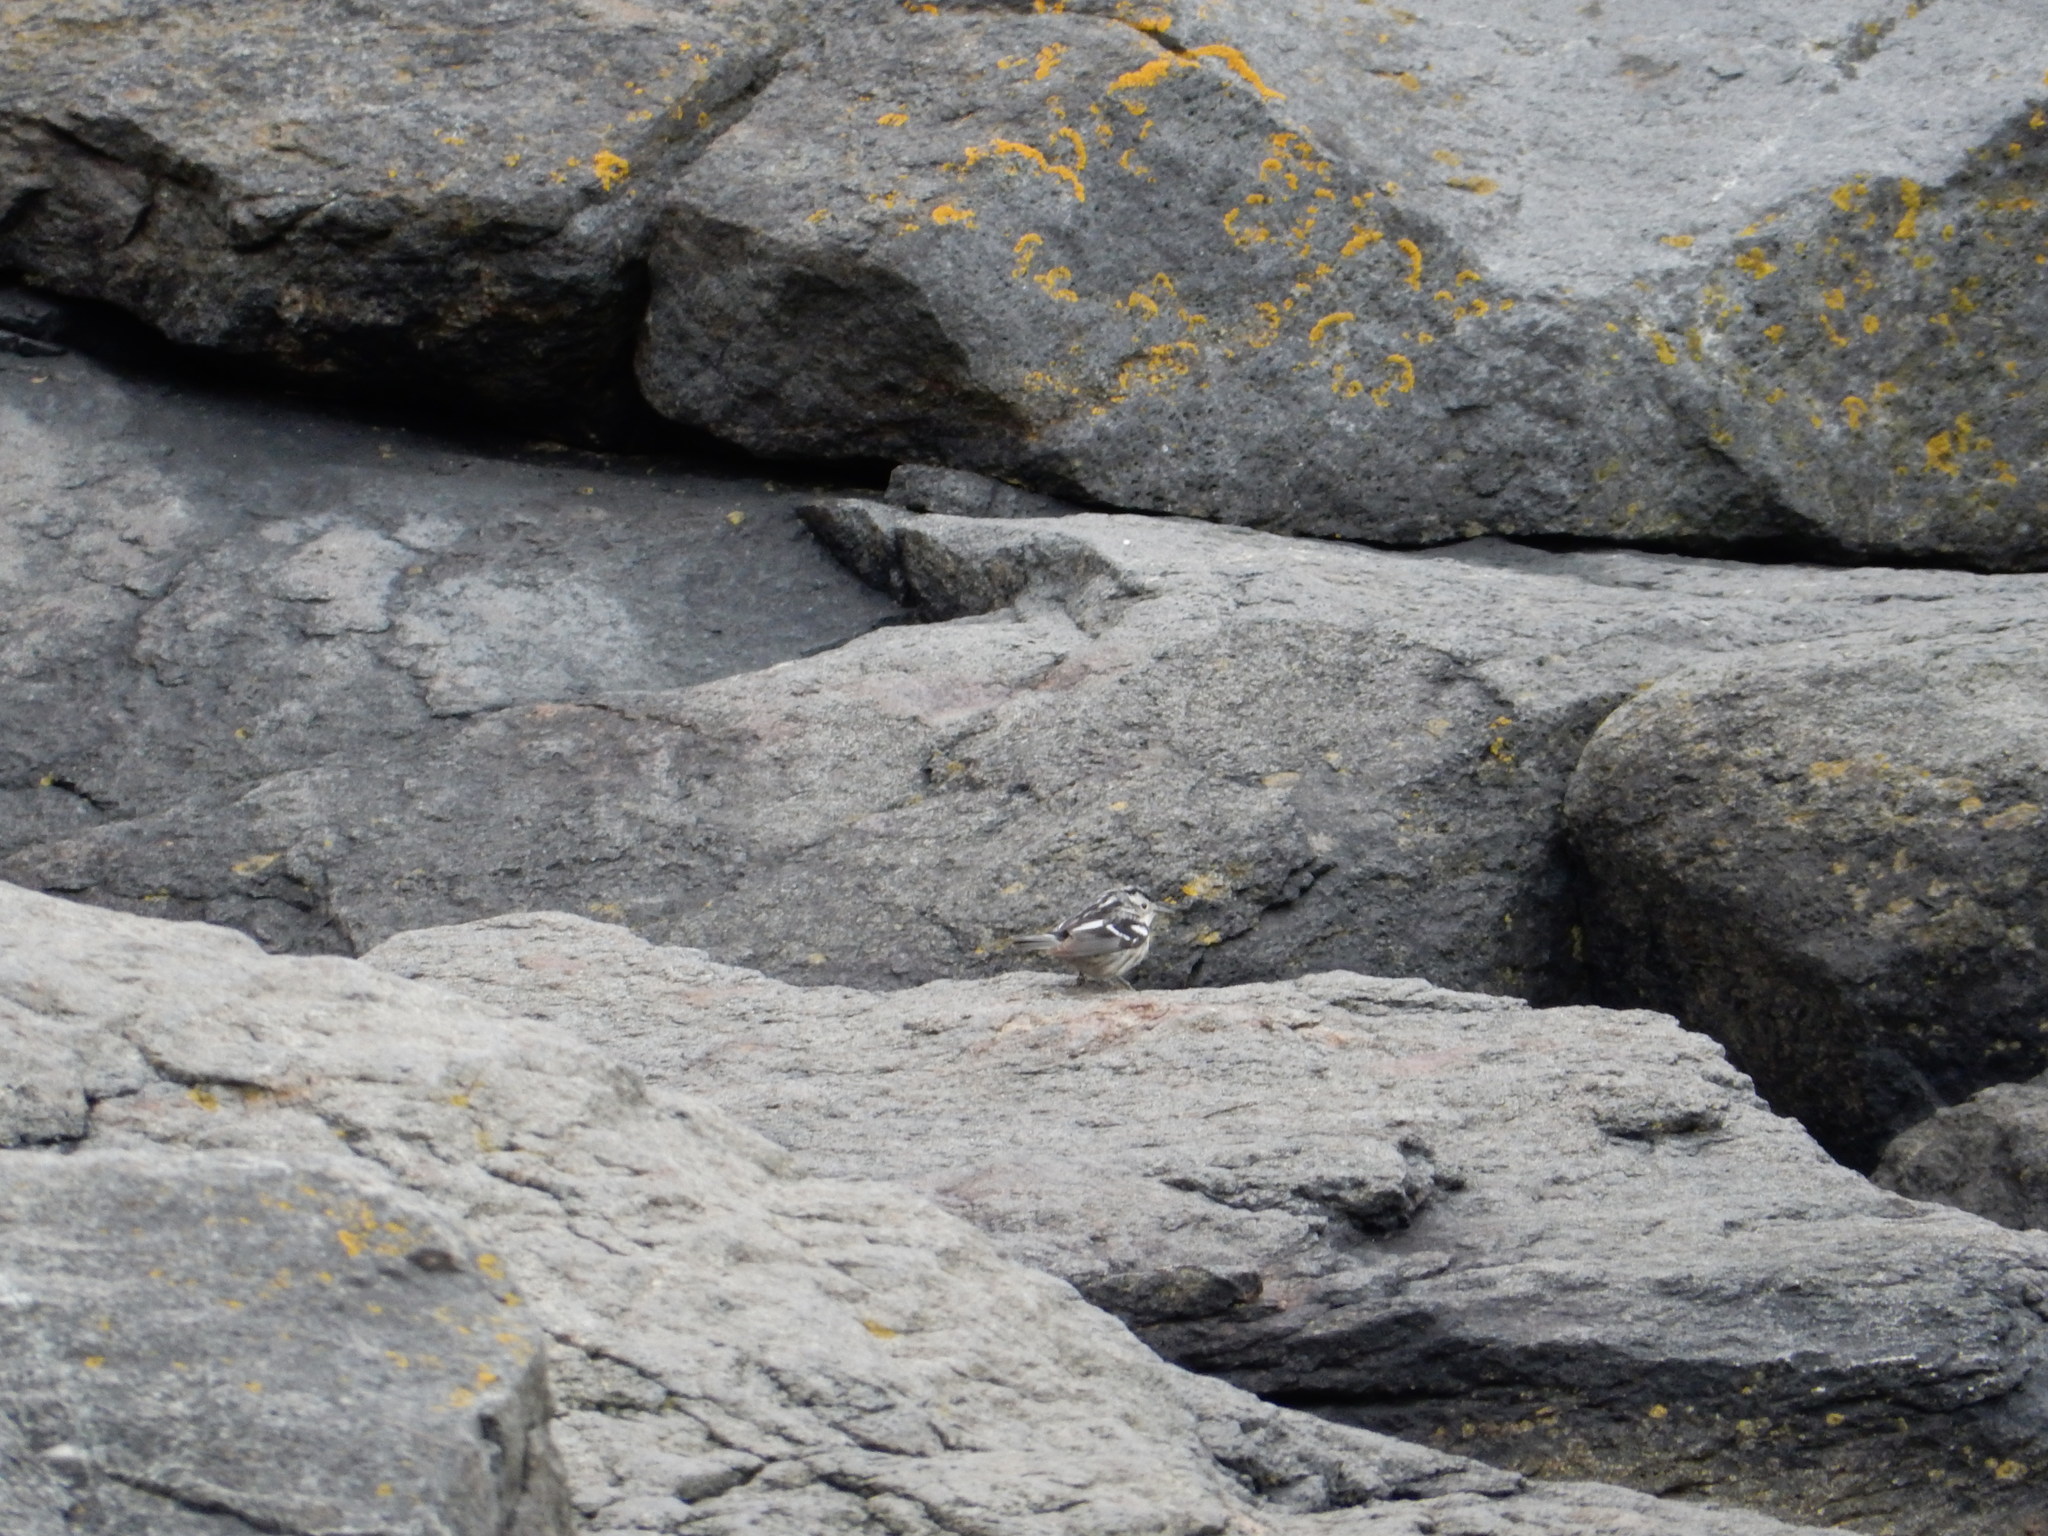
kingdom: Animalia
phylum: Chordata
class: Aves
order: Passeriformes
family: Parulidae
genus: Mniotilta
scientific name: Mniotilta varia
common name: Black-and-white warbler
